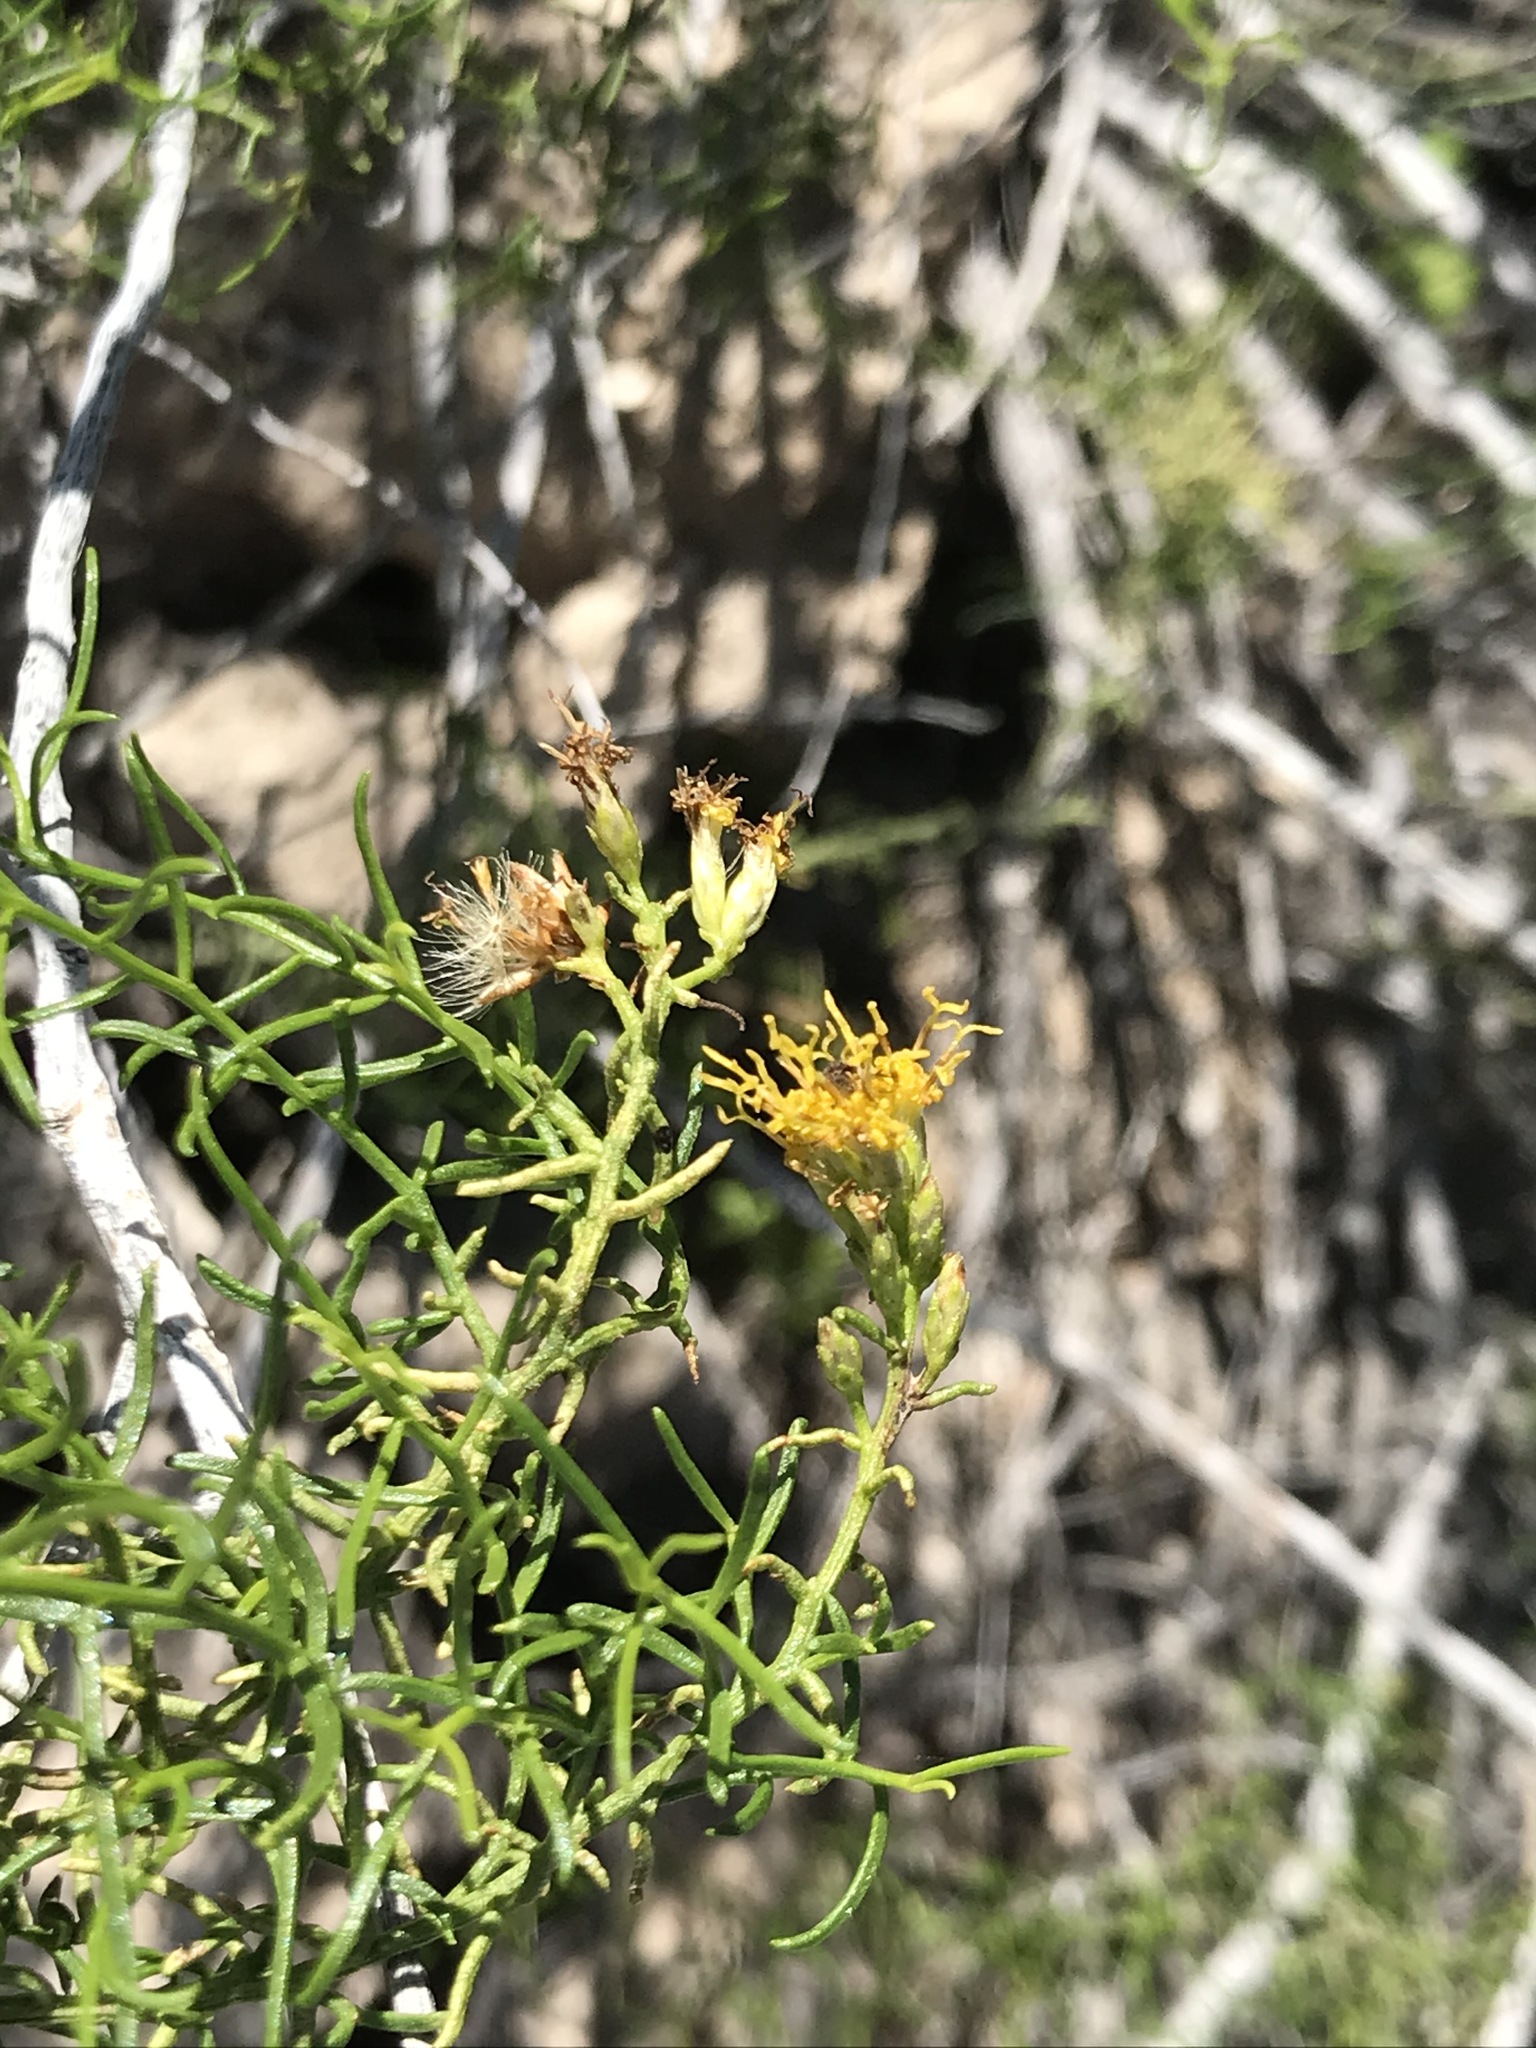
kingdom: Plantae
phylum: Tracheophyta
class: Magnoliopsida
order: Asterales
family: Asteraceae
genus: Gundlachia
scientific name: Gundlachia diffusa
